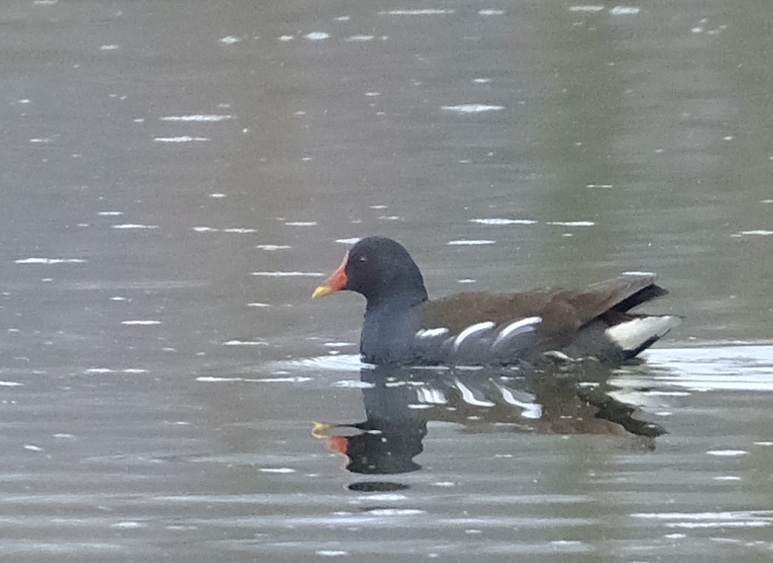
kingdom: Animalia
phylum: Chordata
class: Aves
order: Gruiformes
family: Rallidae
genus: Gallinula
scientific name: Gallinula chloropus
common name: Common moorhen
